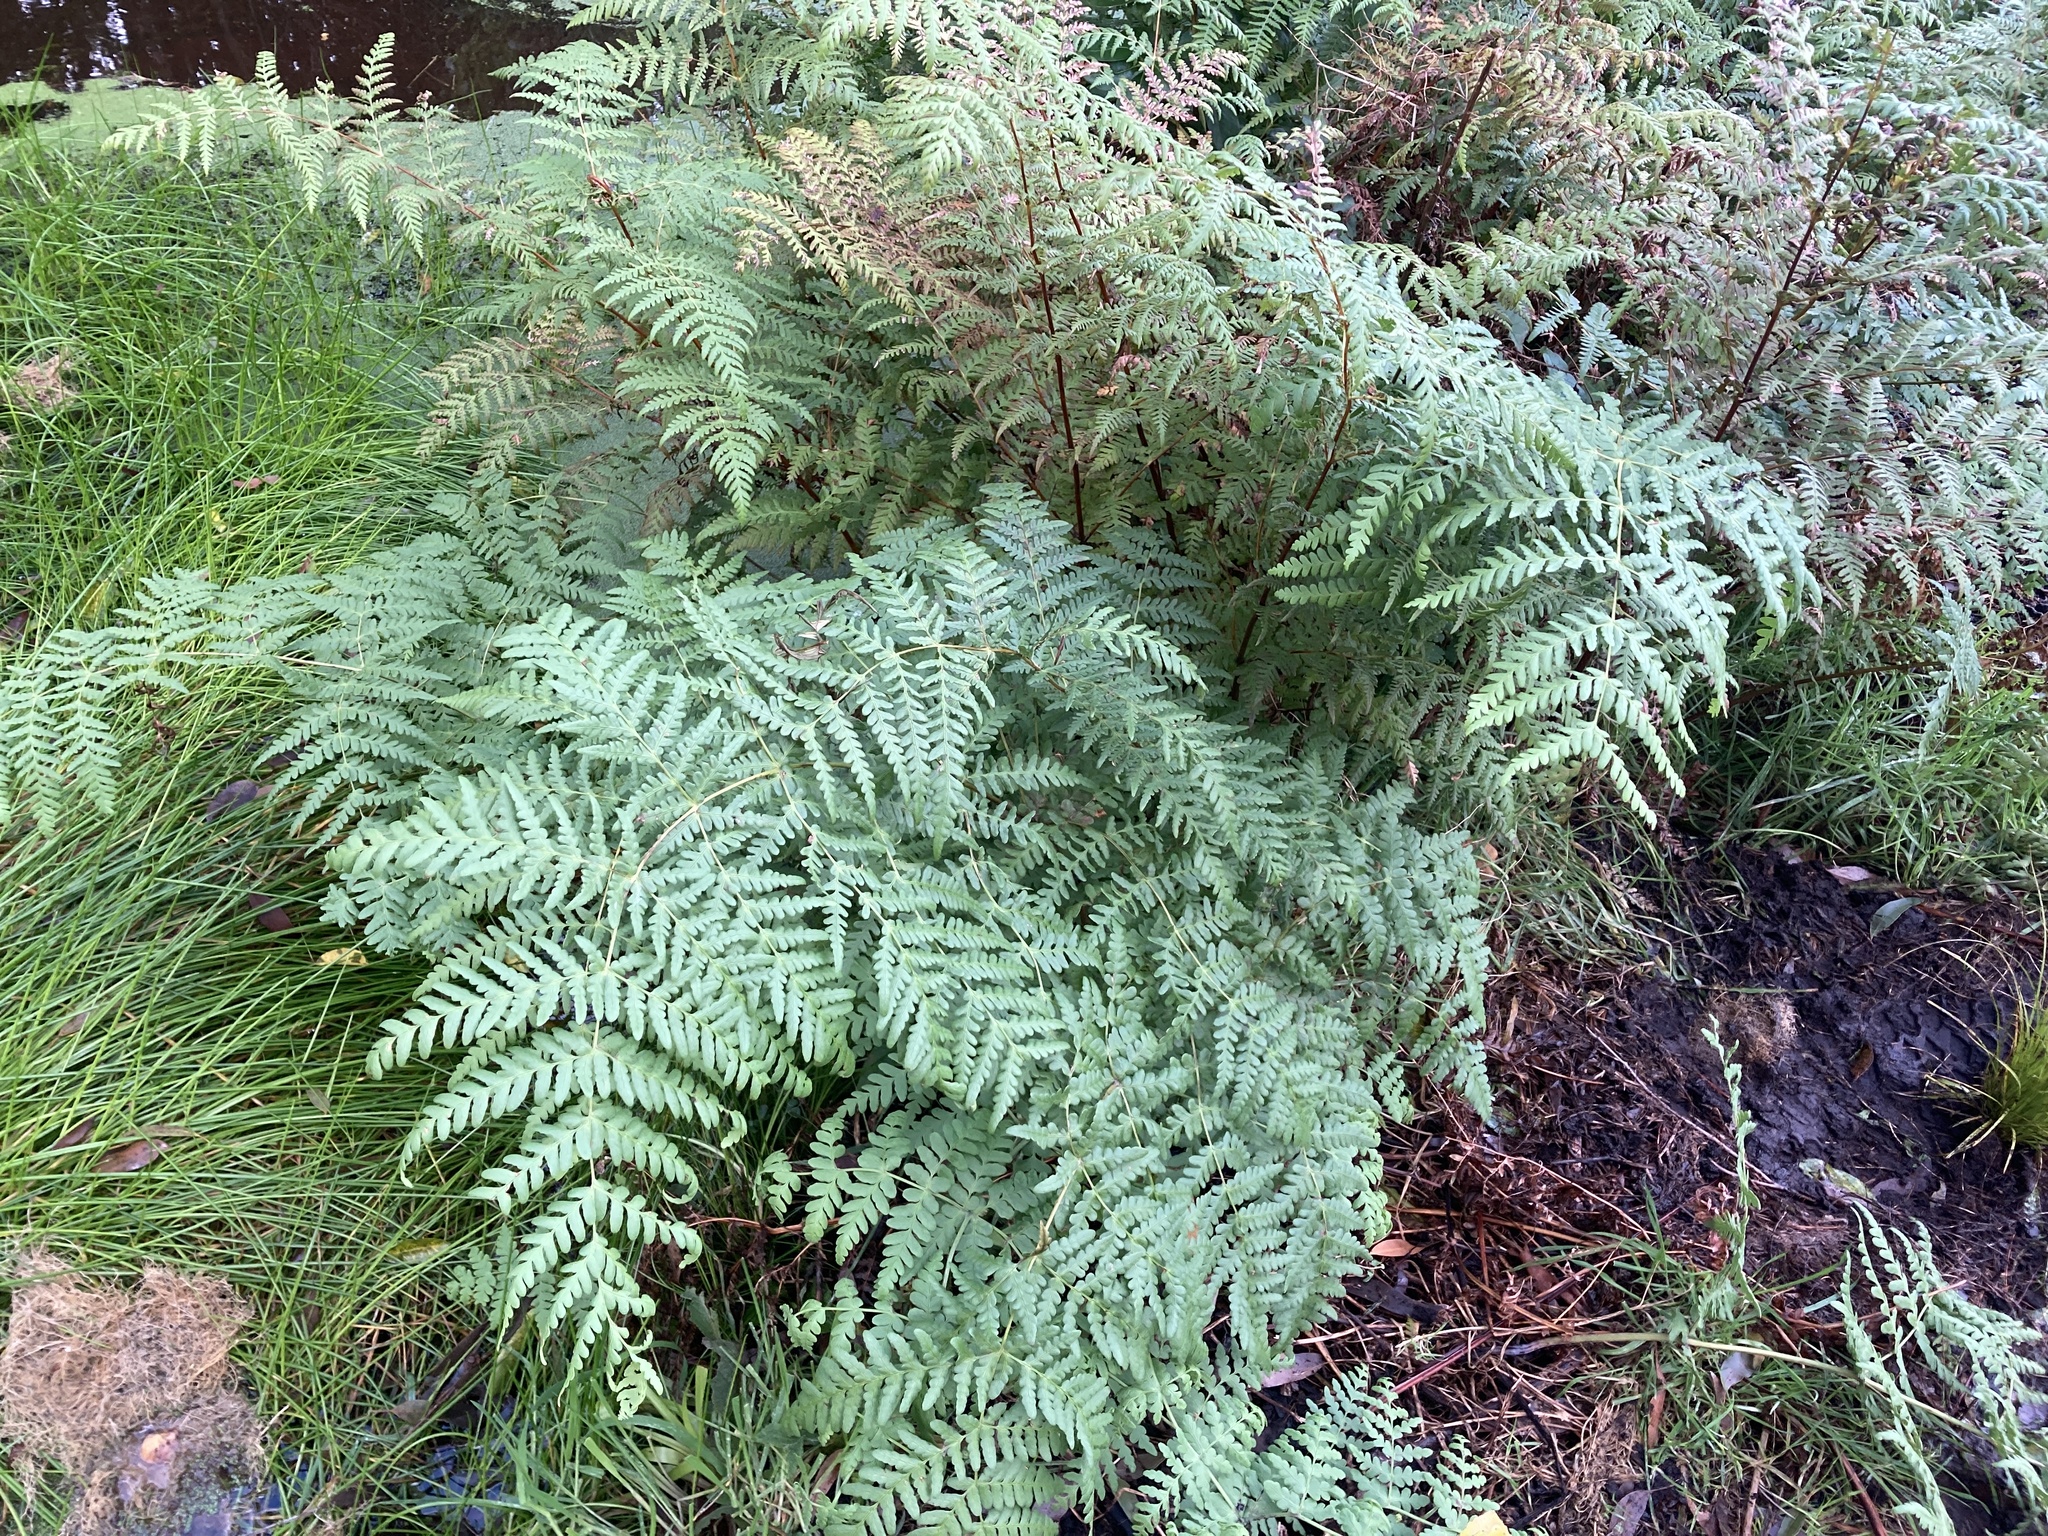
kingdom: Plantae
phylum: Tracheophyta
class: Polypodiopsida
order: Polypodiales
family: Dennstaedtiaceae
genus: Histiopteris
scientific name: Histiopteris incisa
